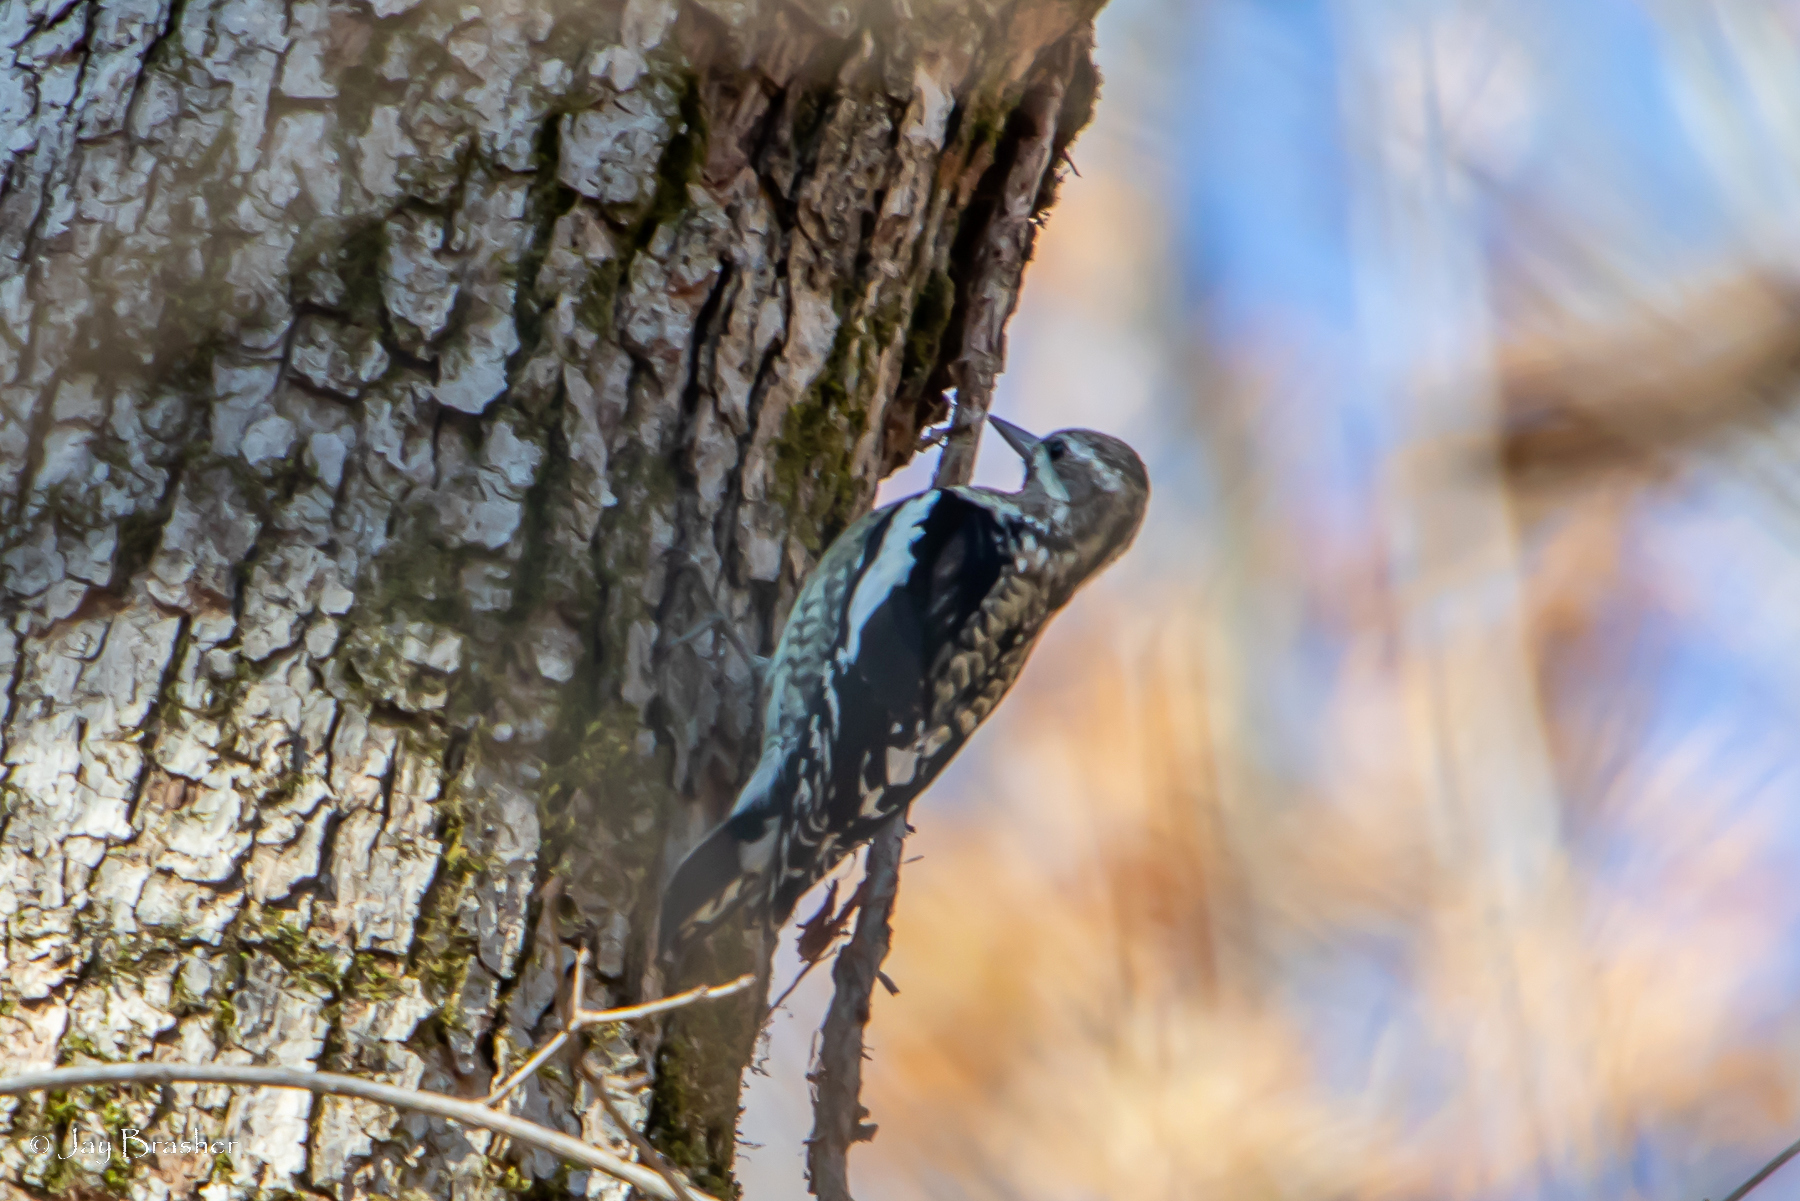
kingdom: Animalia
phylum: Chordata
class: Aves
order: Piciformes
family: Picidae
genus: Sphyrapicus
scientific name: Sphyrapicus varius
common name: Yellow-bellied sapsucker
